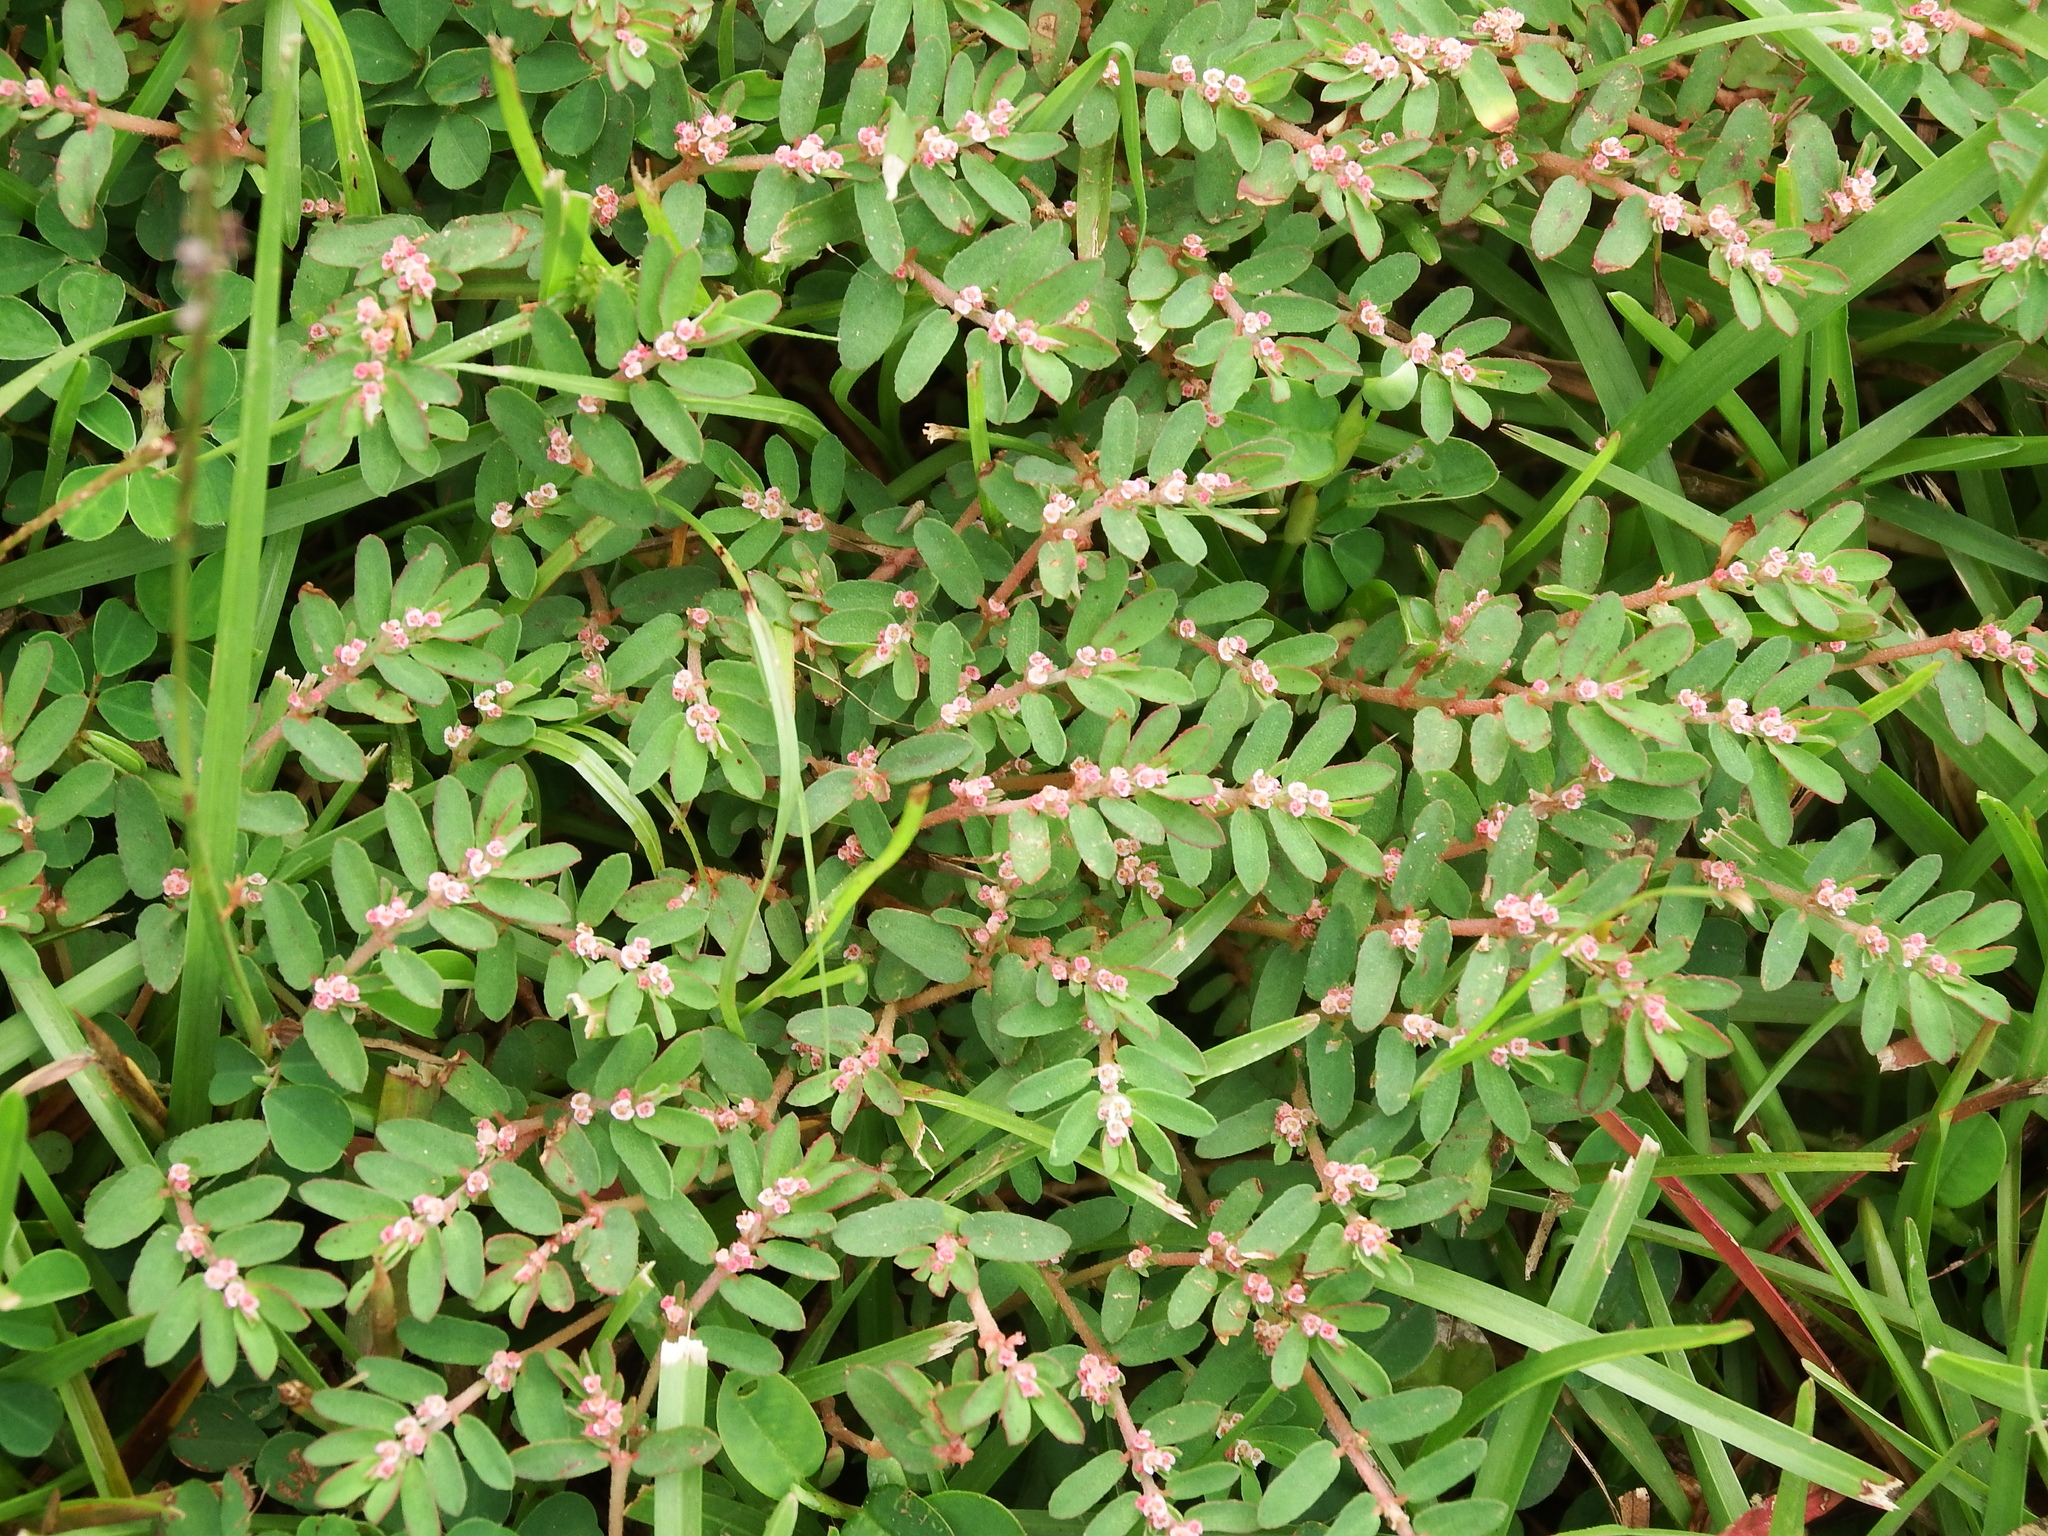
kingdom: Plantae
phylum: Tracheophyta
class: Magnoliopsida
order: Malpighiales
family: Euphorbiaceae
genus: Euphorbia
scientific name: Euphorbia maculata
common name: Spotted spurge
